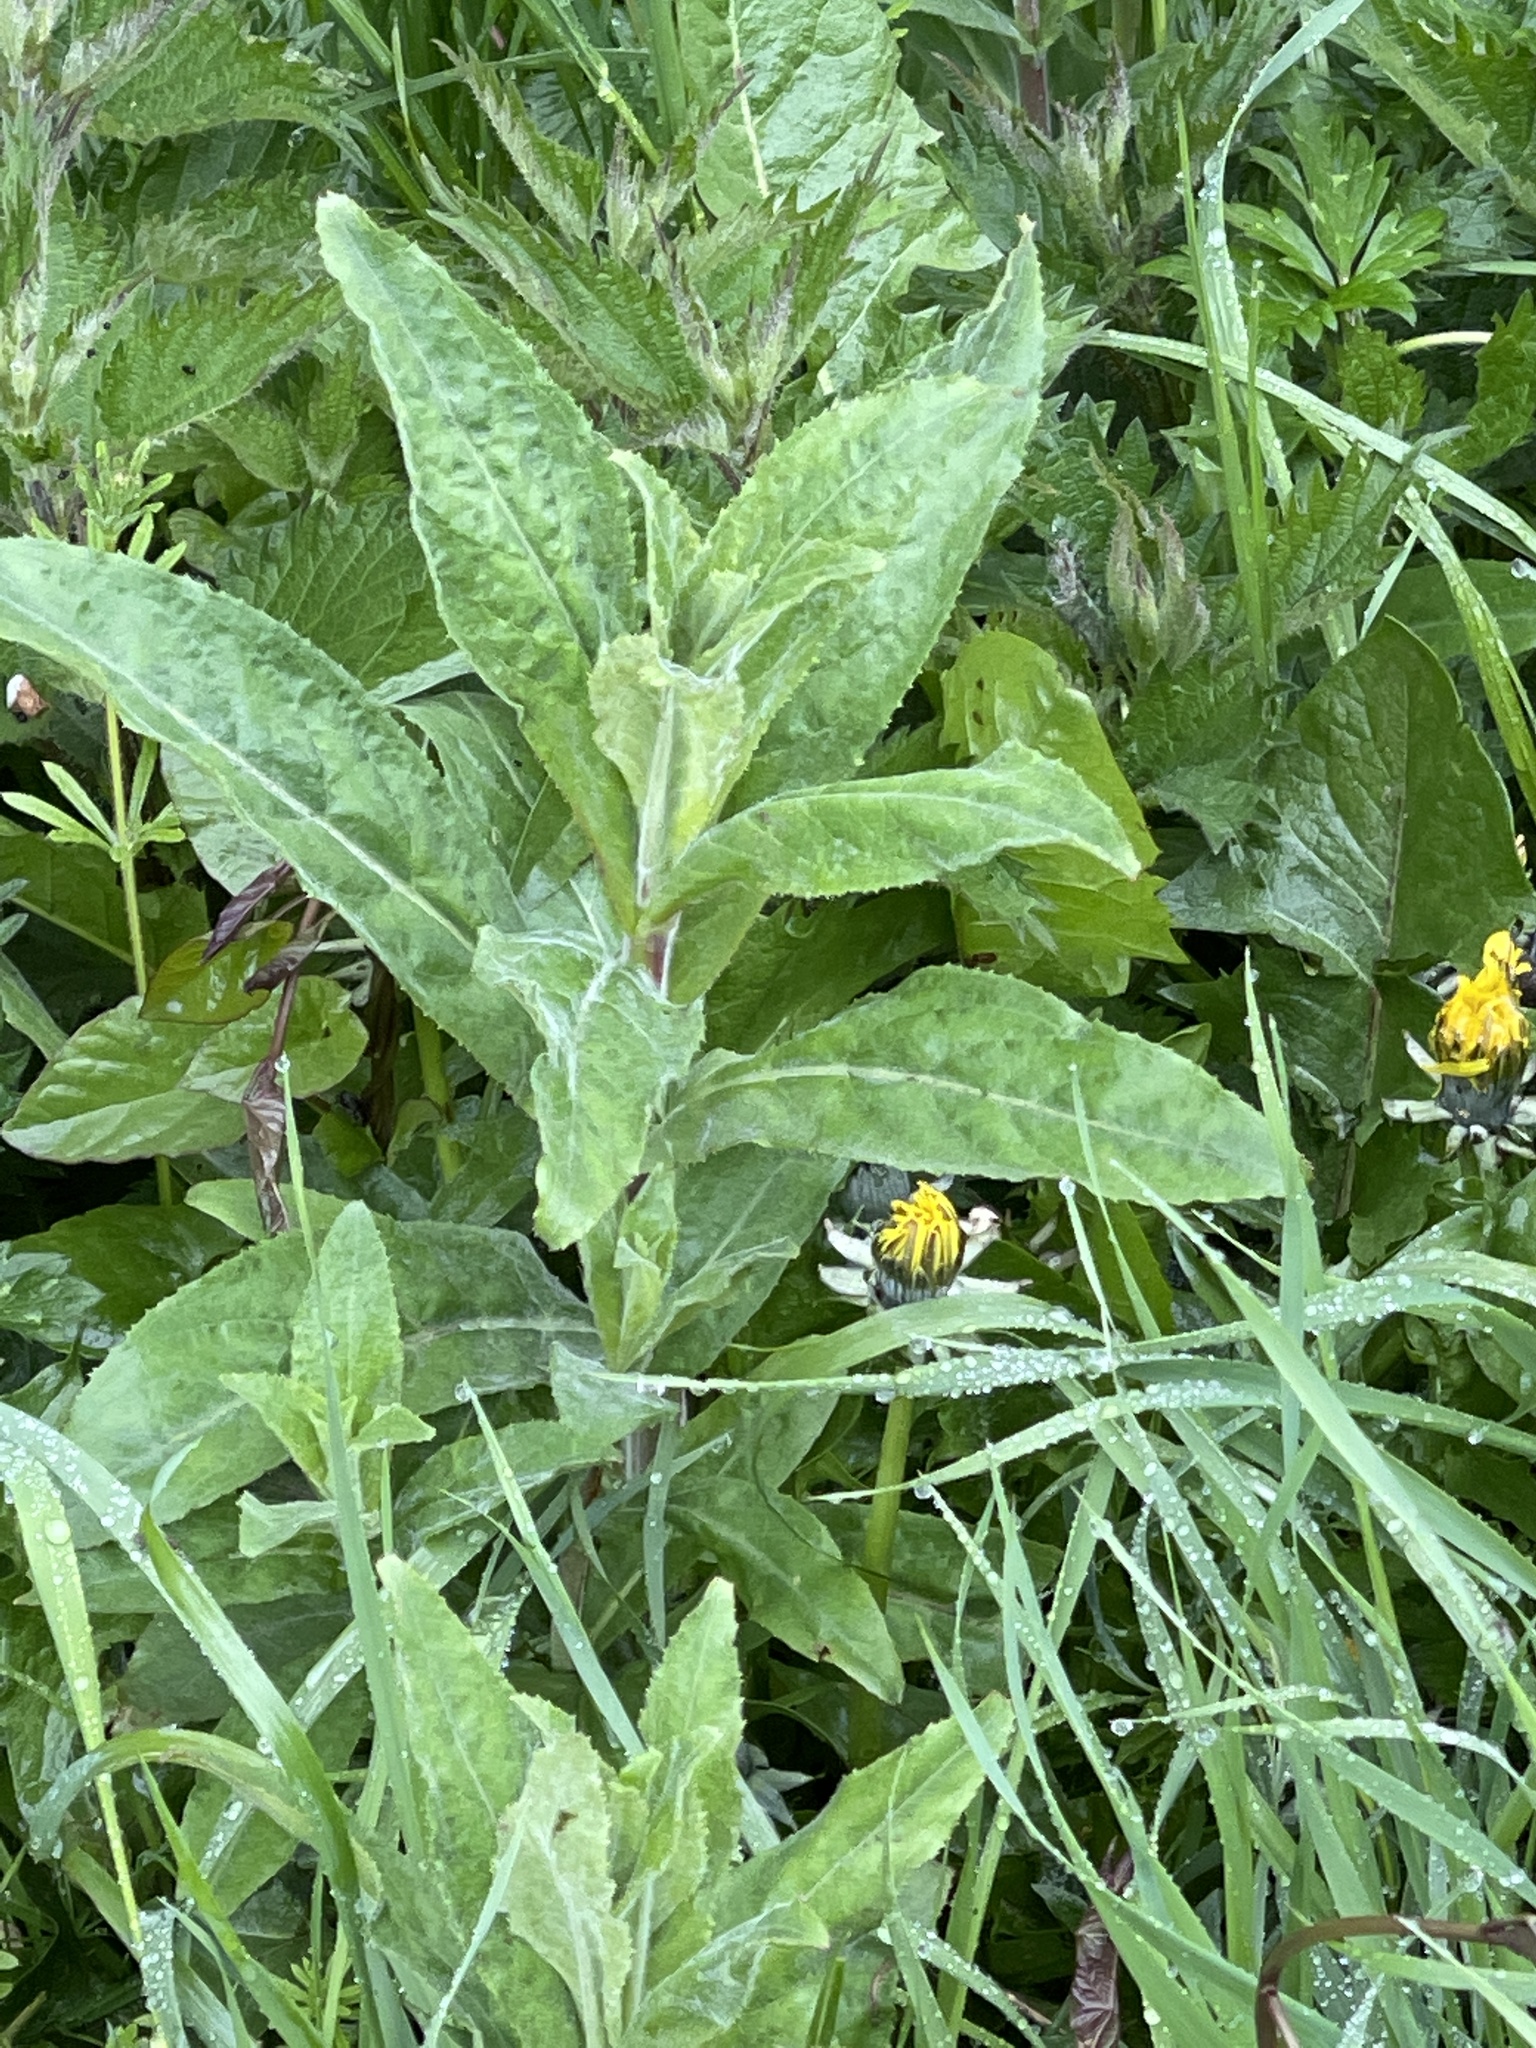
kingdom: Plantae
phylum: Tracheophyta
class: Magnoliopsida
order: Myrtales
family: Onagraceae
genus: Epilobium
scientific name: Epilobium hirsutum
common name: Great willowherb
